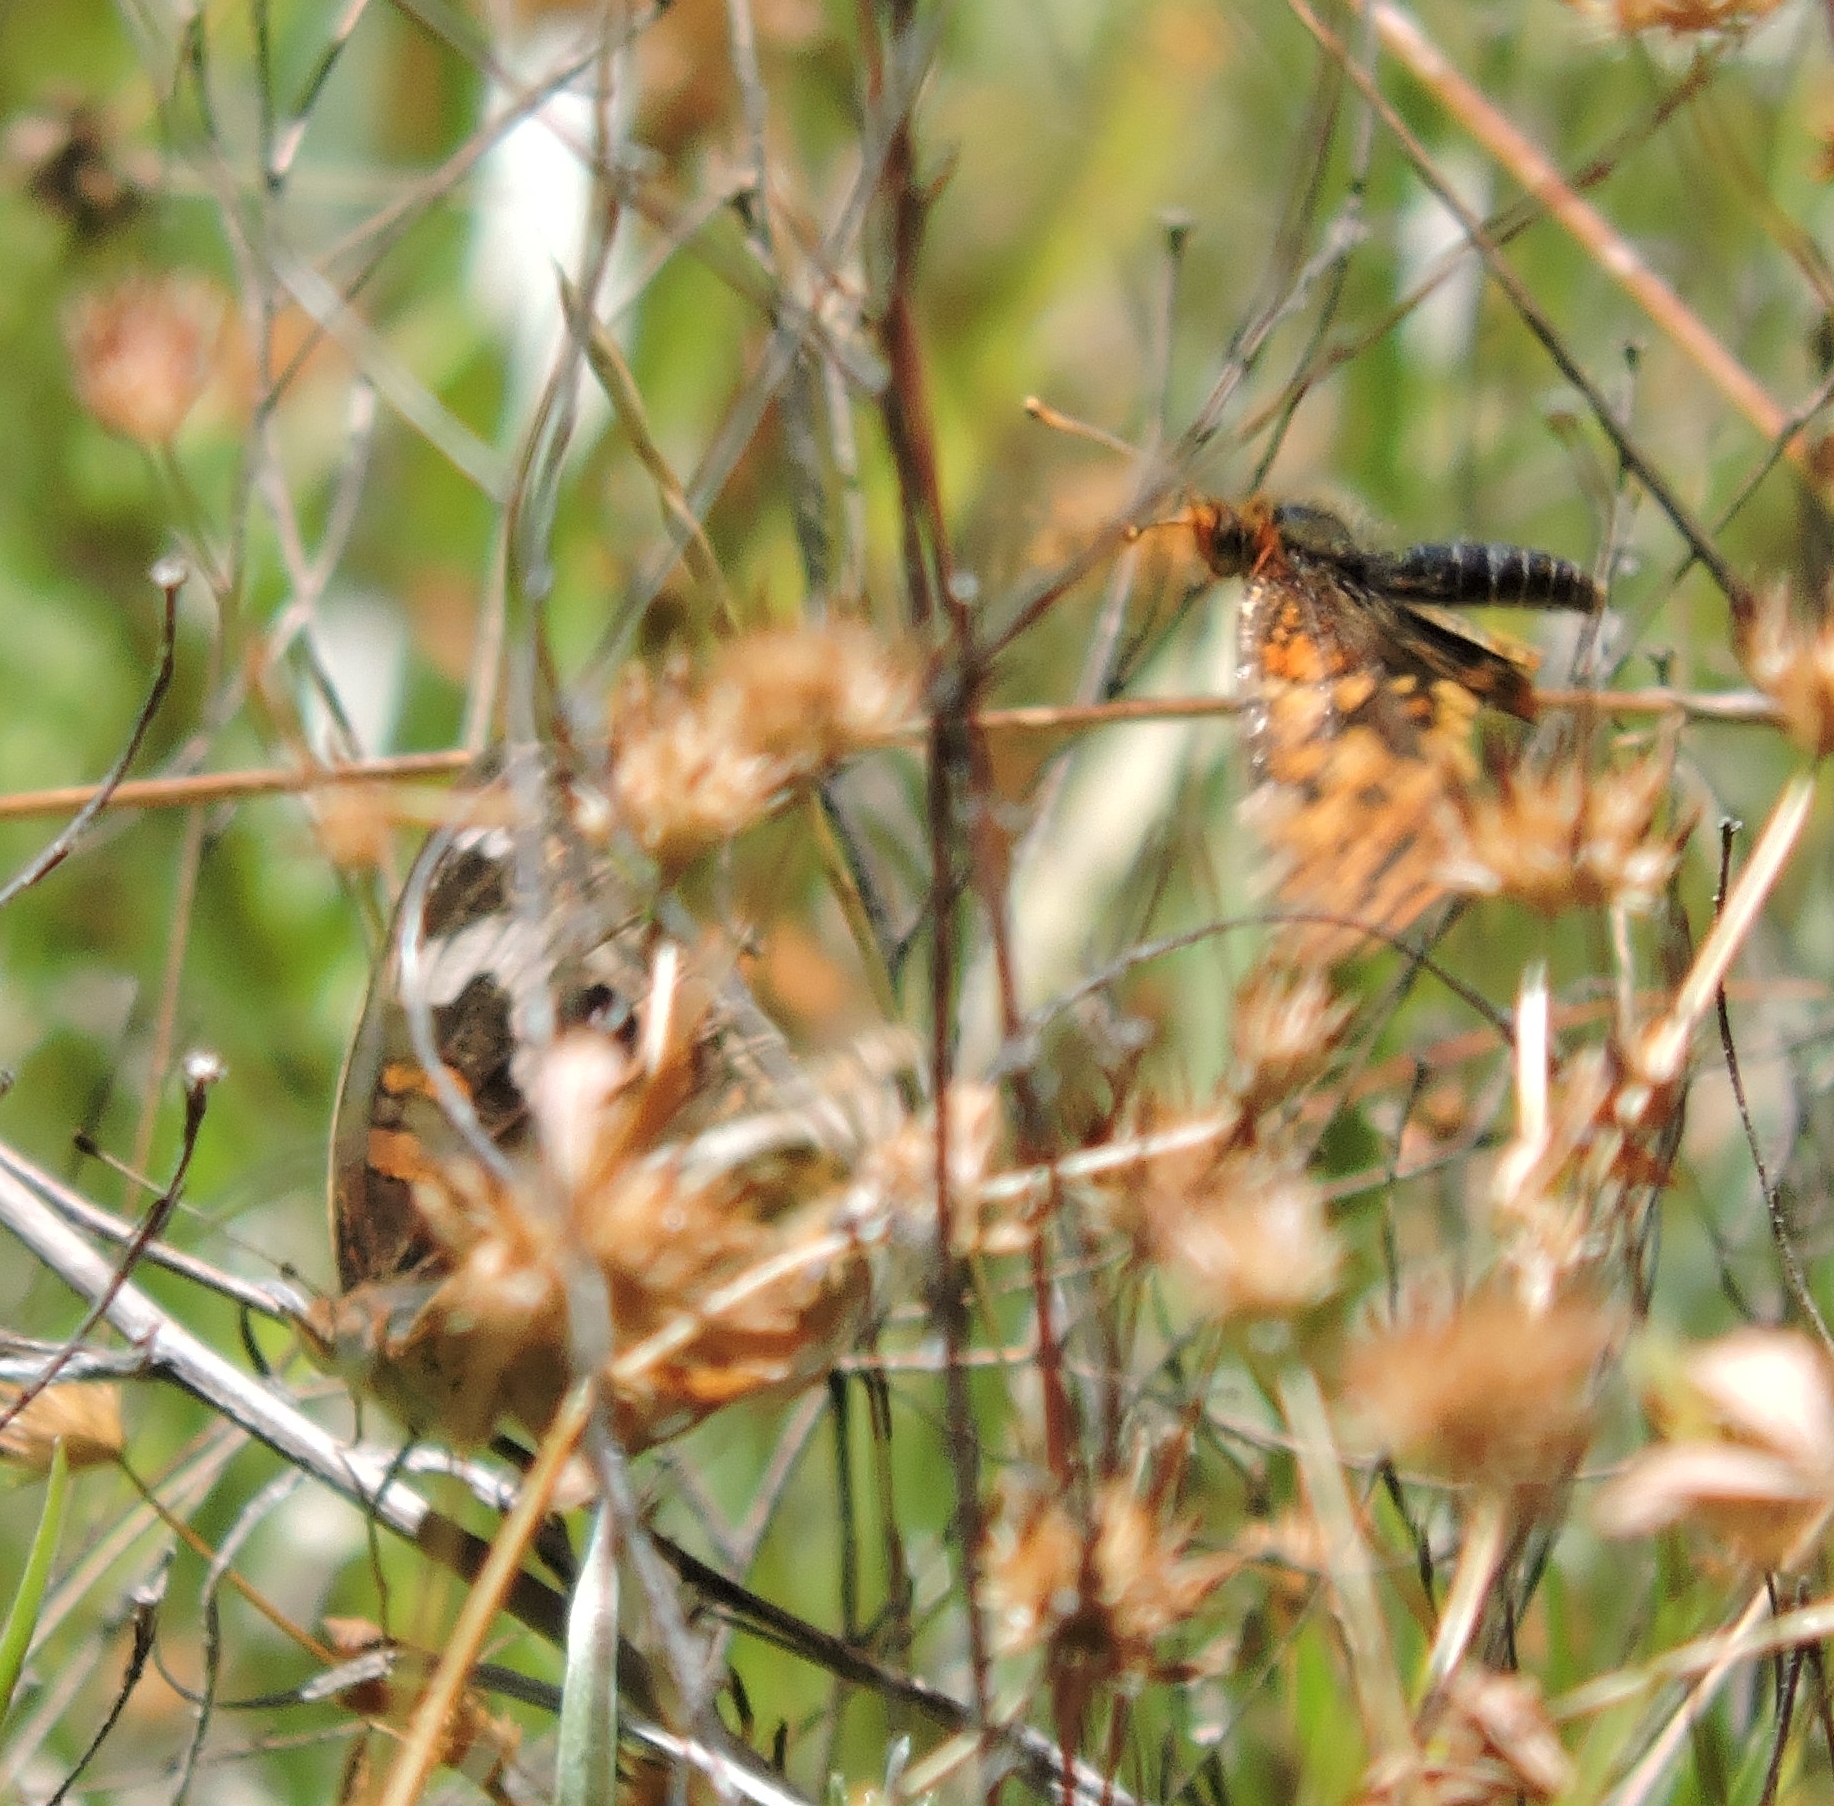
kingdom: Animalia
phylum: Arthropoda
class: Insecta
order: Lepidoptera
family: Nymphalidae
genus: Junonia
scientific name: Junonia grisea
